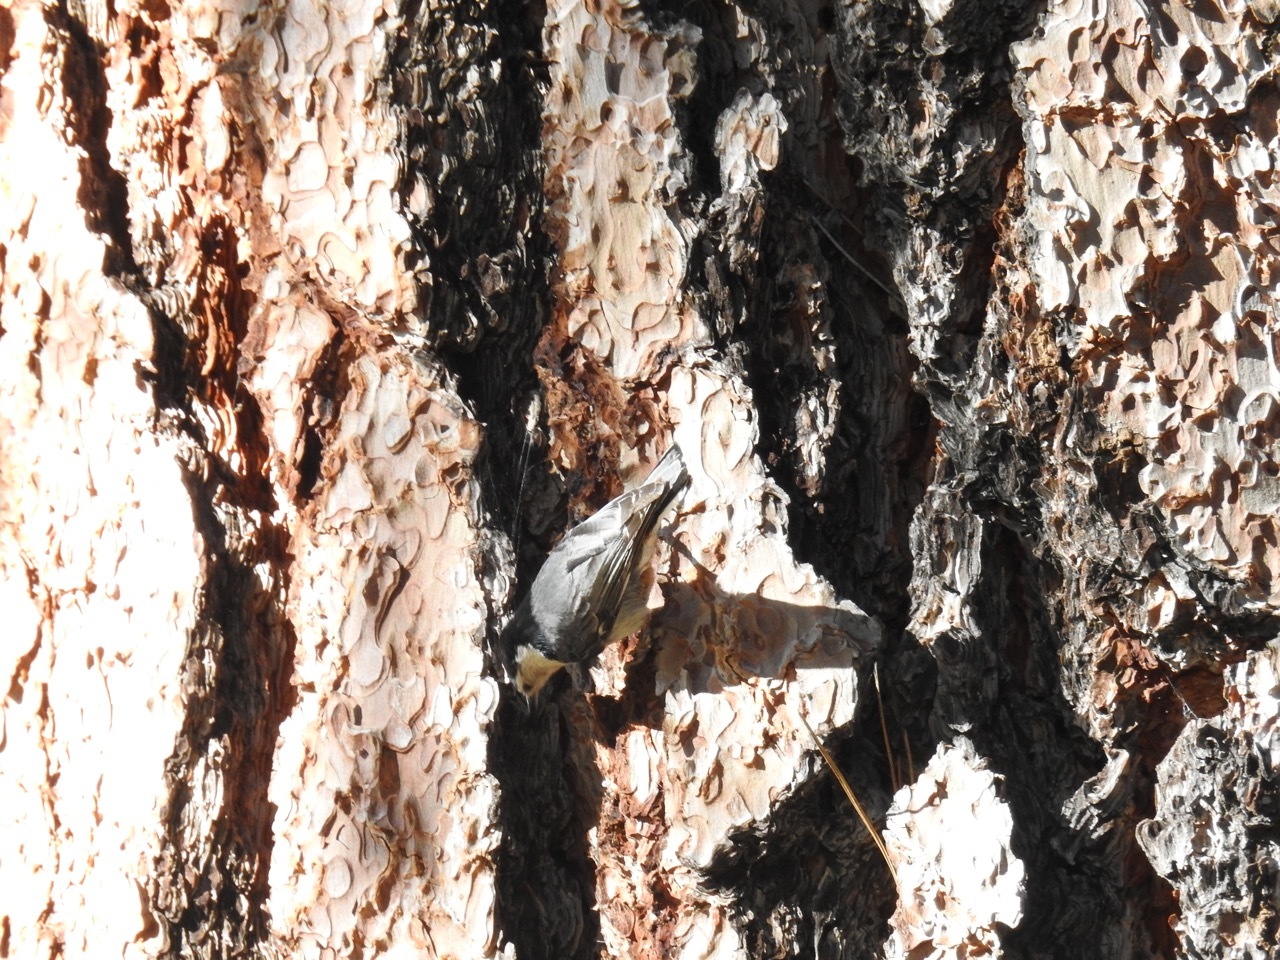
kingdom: Animalia
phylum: Chordata
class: Aves
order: Passeriformes
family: Sittidae
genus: Sitta
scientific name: Sitta carolinensis
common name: White-breasted nuthatch
